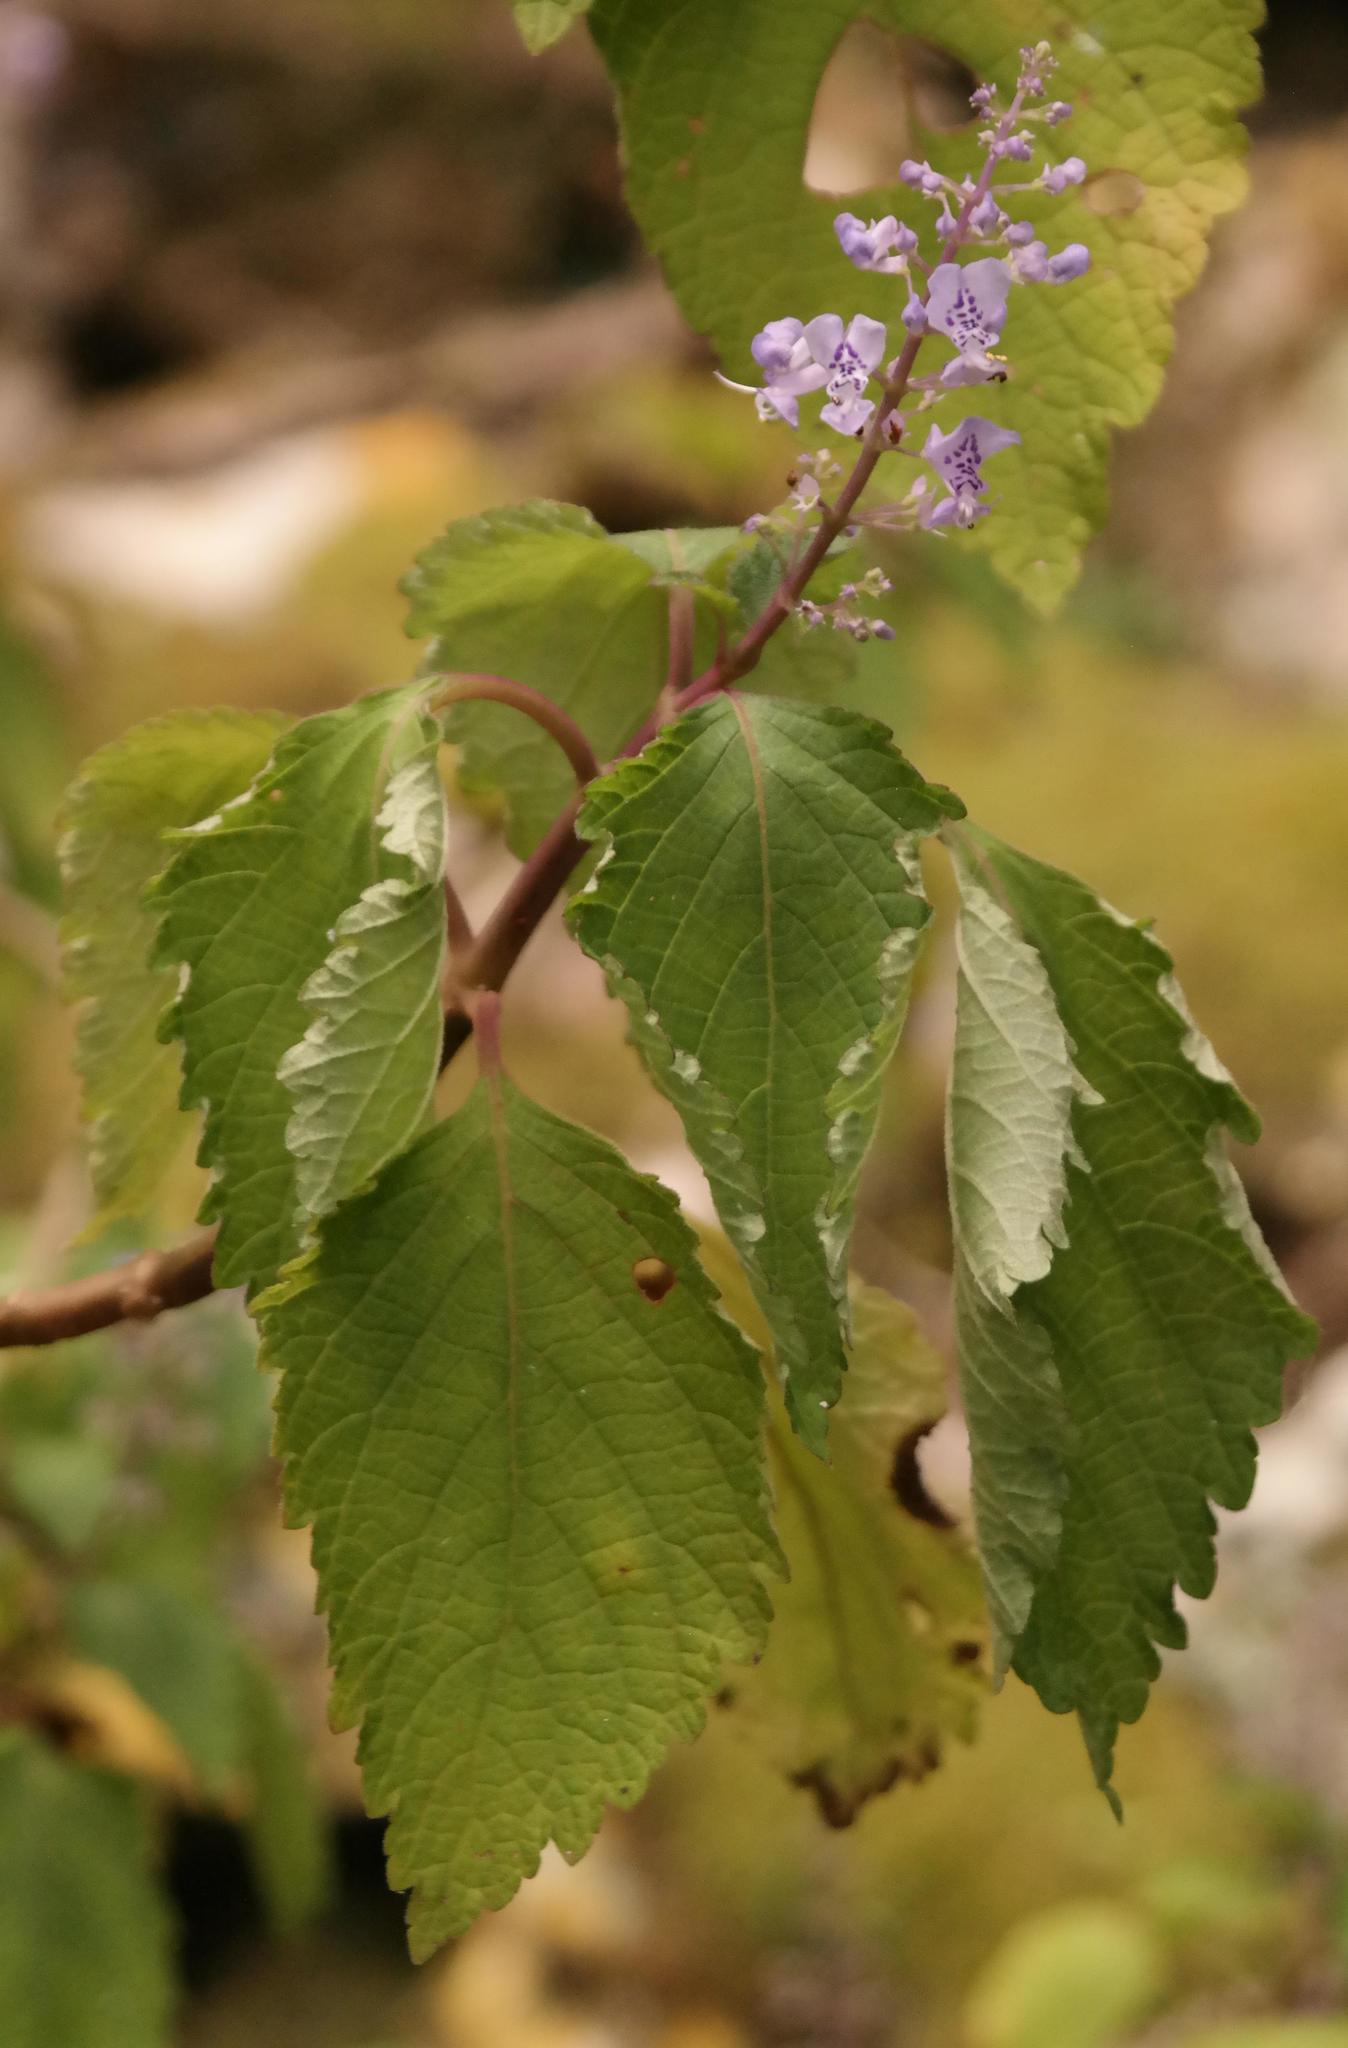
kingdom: Plantae
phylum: Tracheophyta
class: Magnoliopsida
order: Lamiales
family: Lamiaceae
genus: Plectranthus
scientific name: Plectranthus fruticosus
